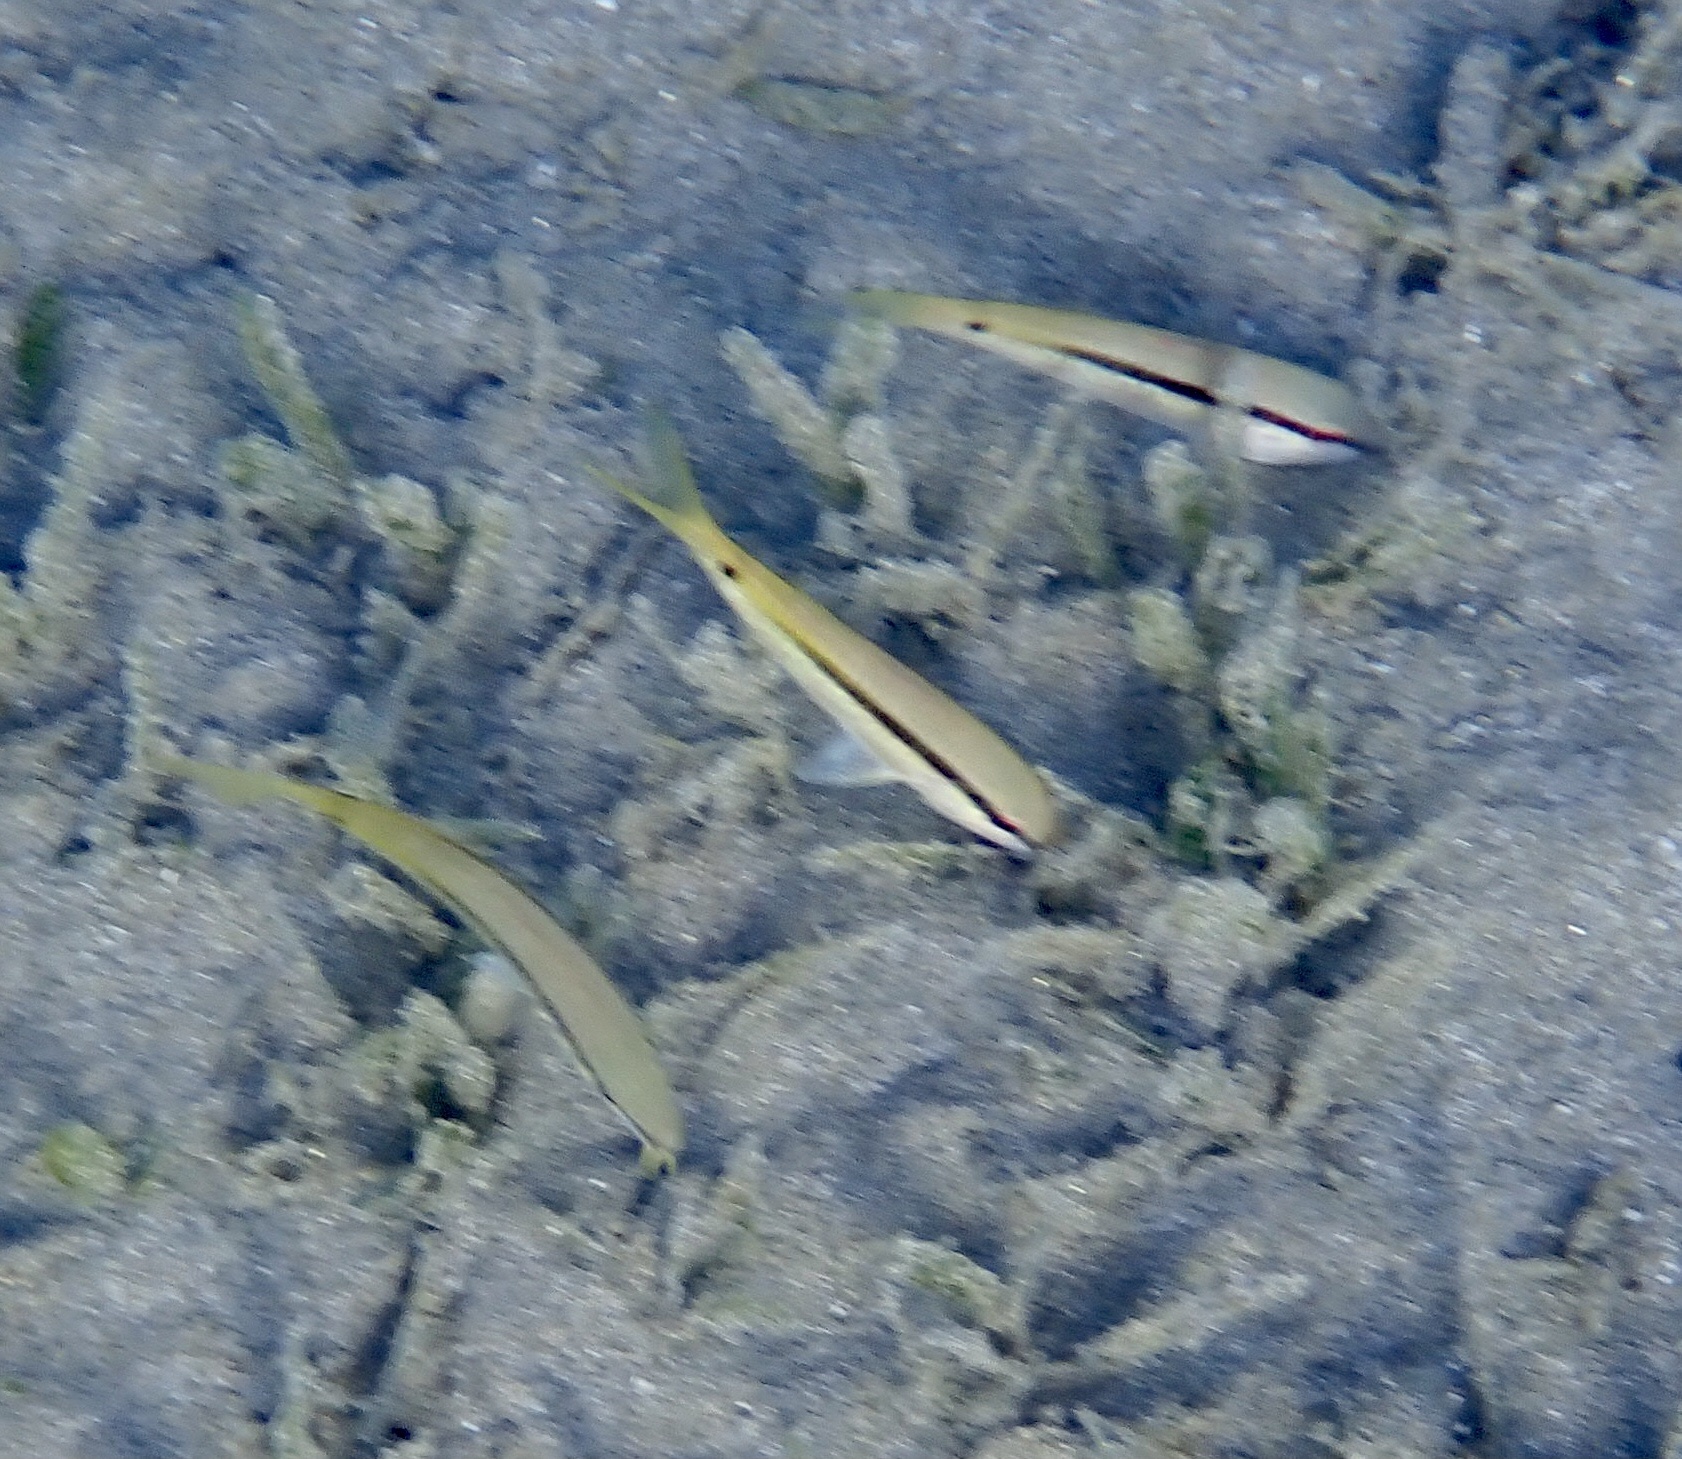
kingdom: Animalia
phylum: Chordata
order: Perciformes
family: Mullidae
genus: Parupeneus
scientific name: Parupeneus forsskali
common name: Red sea goatfish
